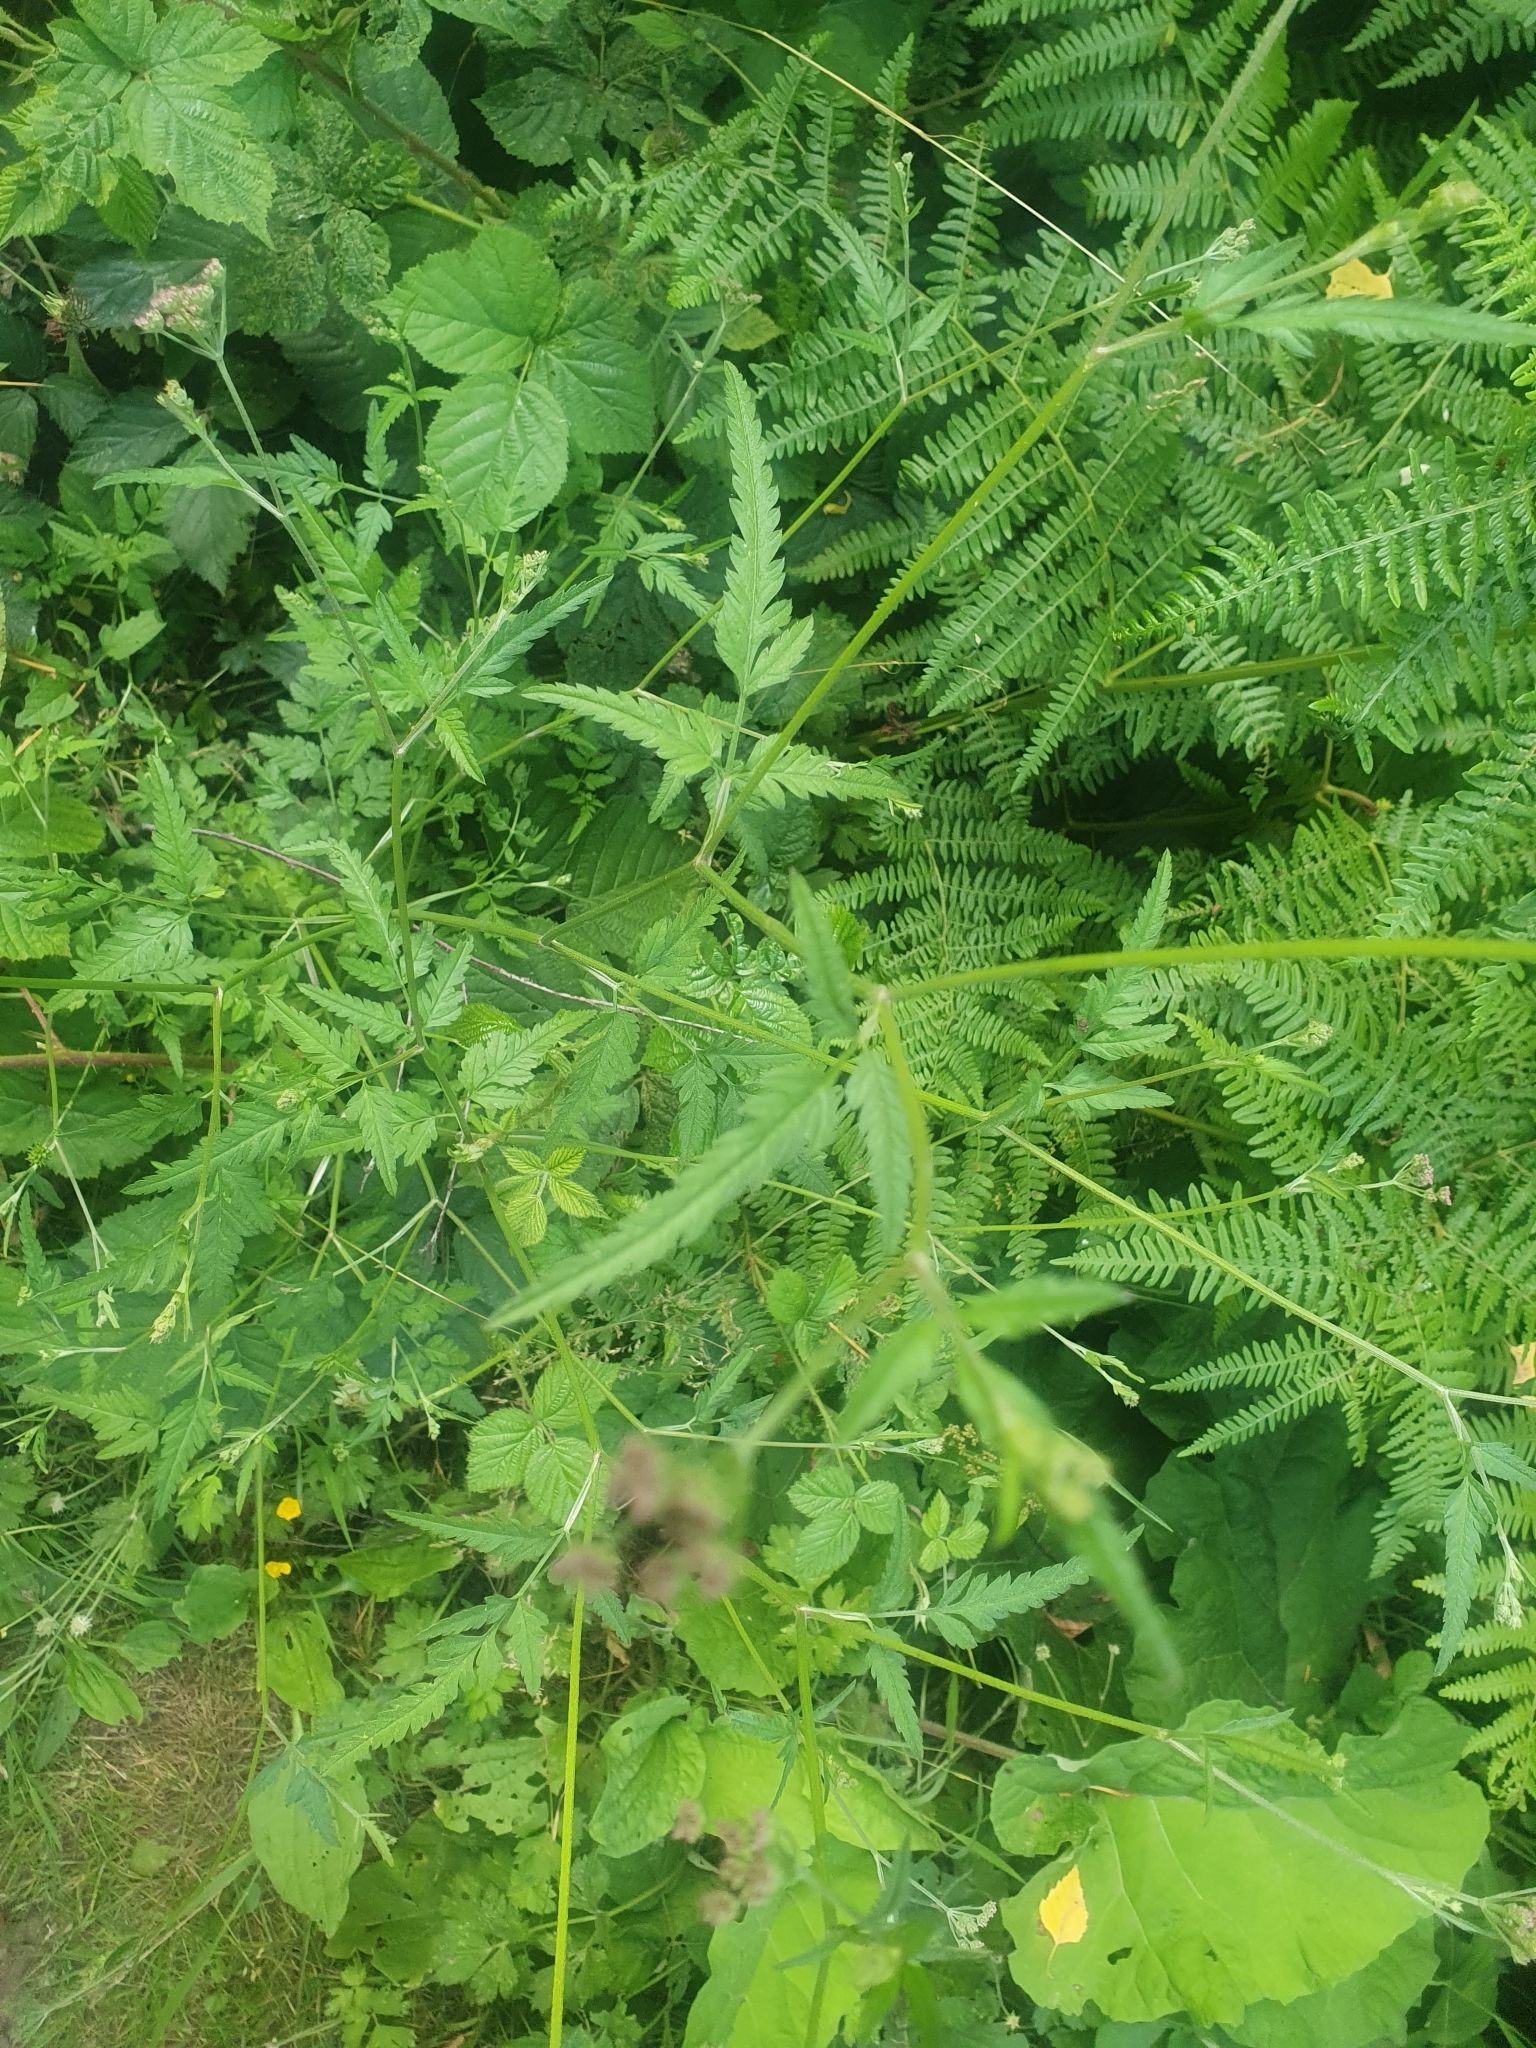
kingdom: Plantae
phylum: Tracheophyta
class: Magnoliopsida
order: Apiales
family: Apiaceae
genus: Torilis
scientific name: Torilis japonica
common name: Upright hedge-parsley
